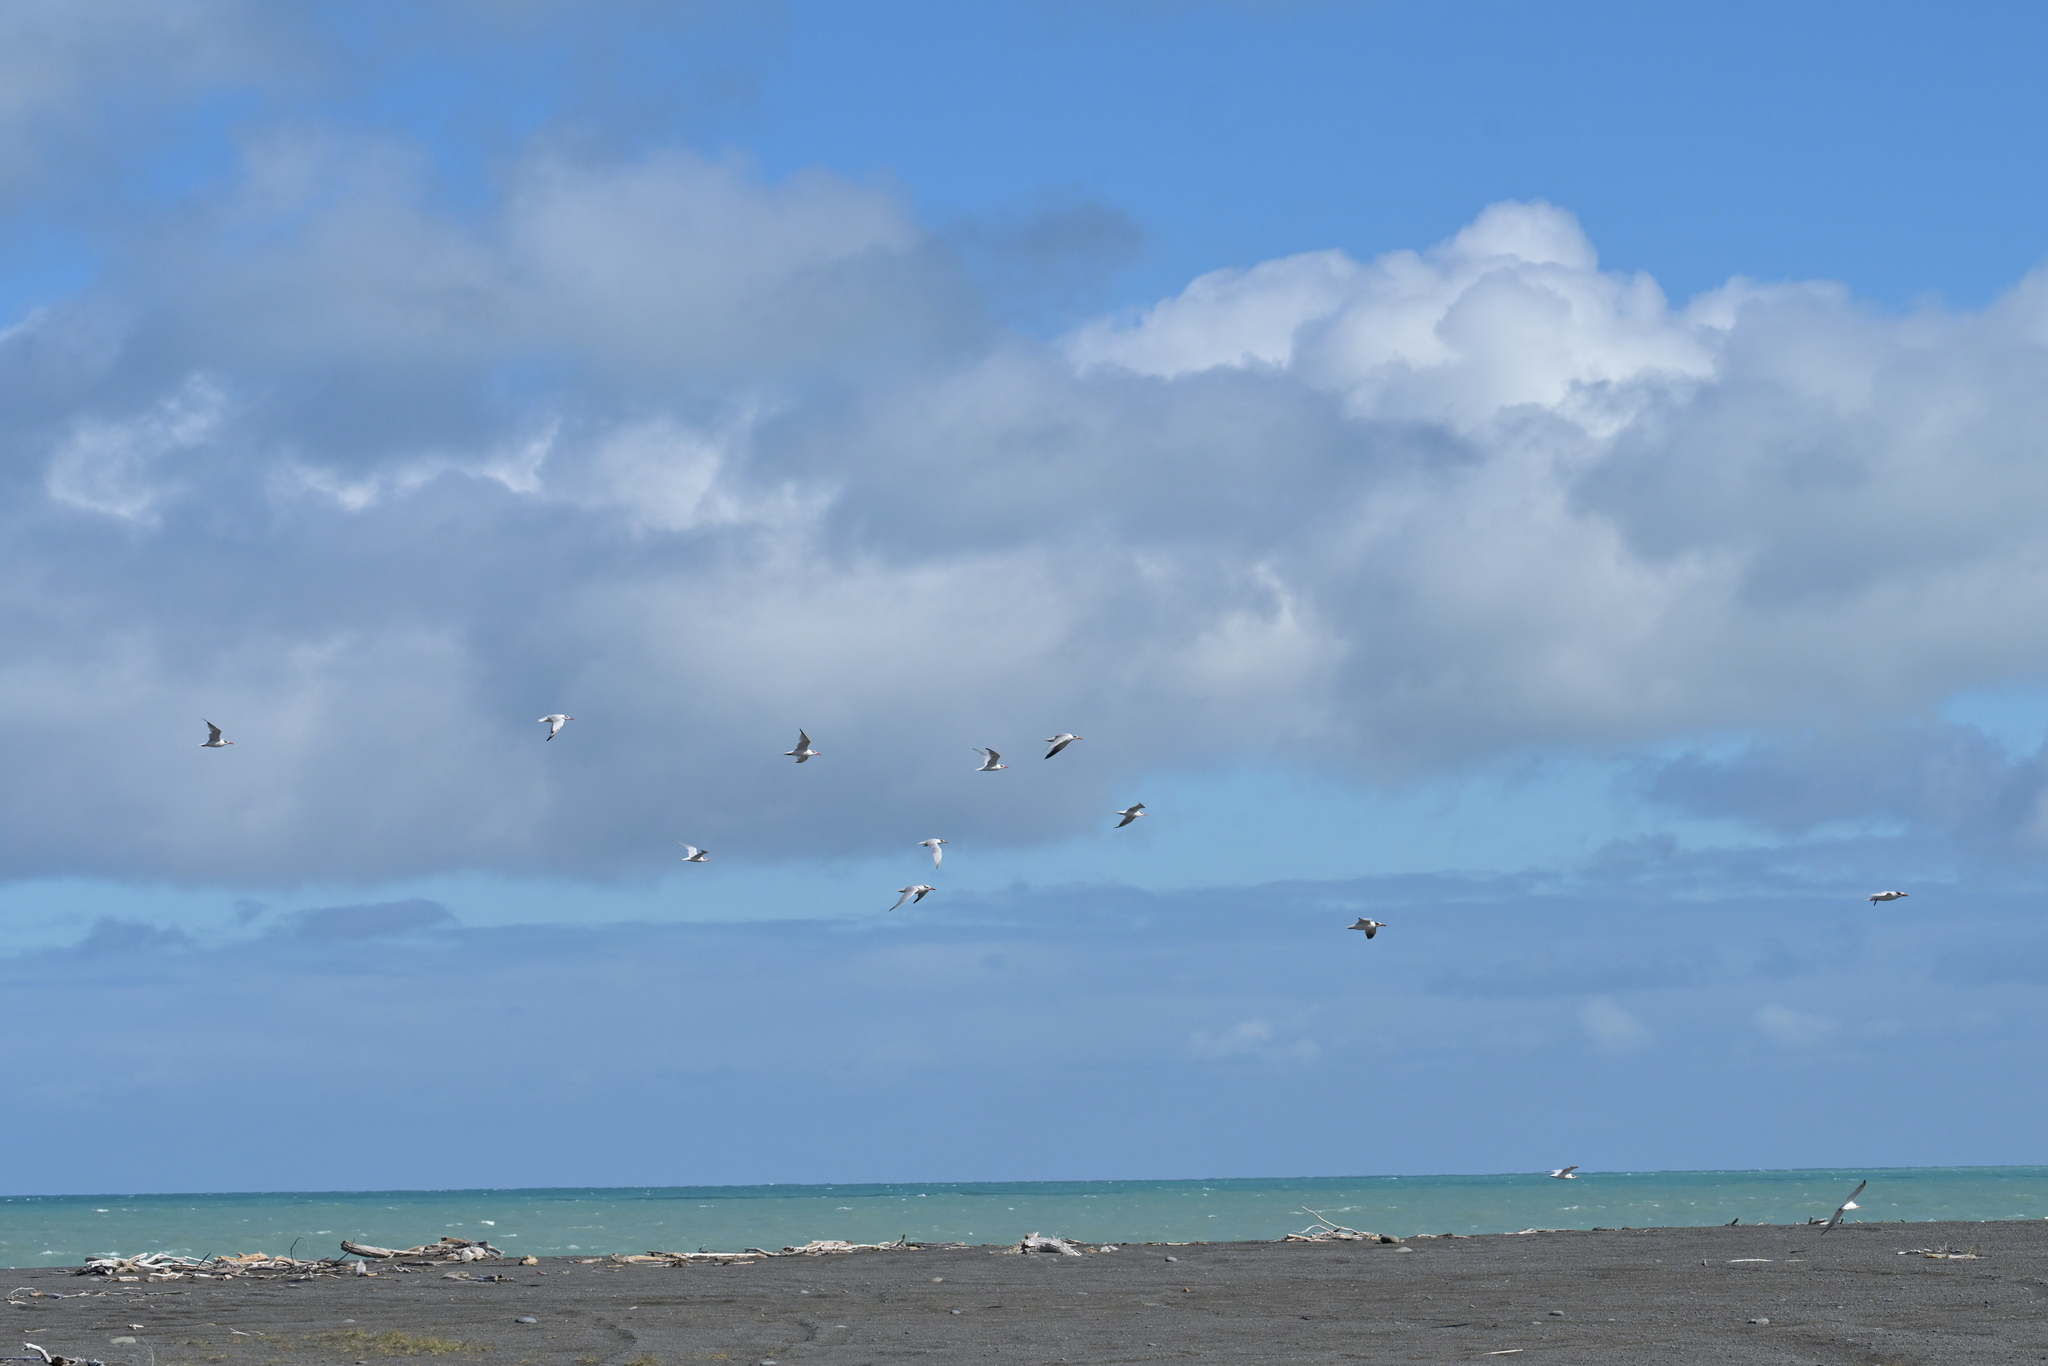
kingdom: Animalia
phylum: Chordata
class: Aves
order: Charadriiformes
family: Laridae
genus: Hydroprogne
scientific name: Hydroprogne caspia
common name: Caspian tern
